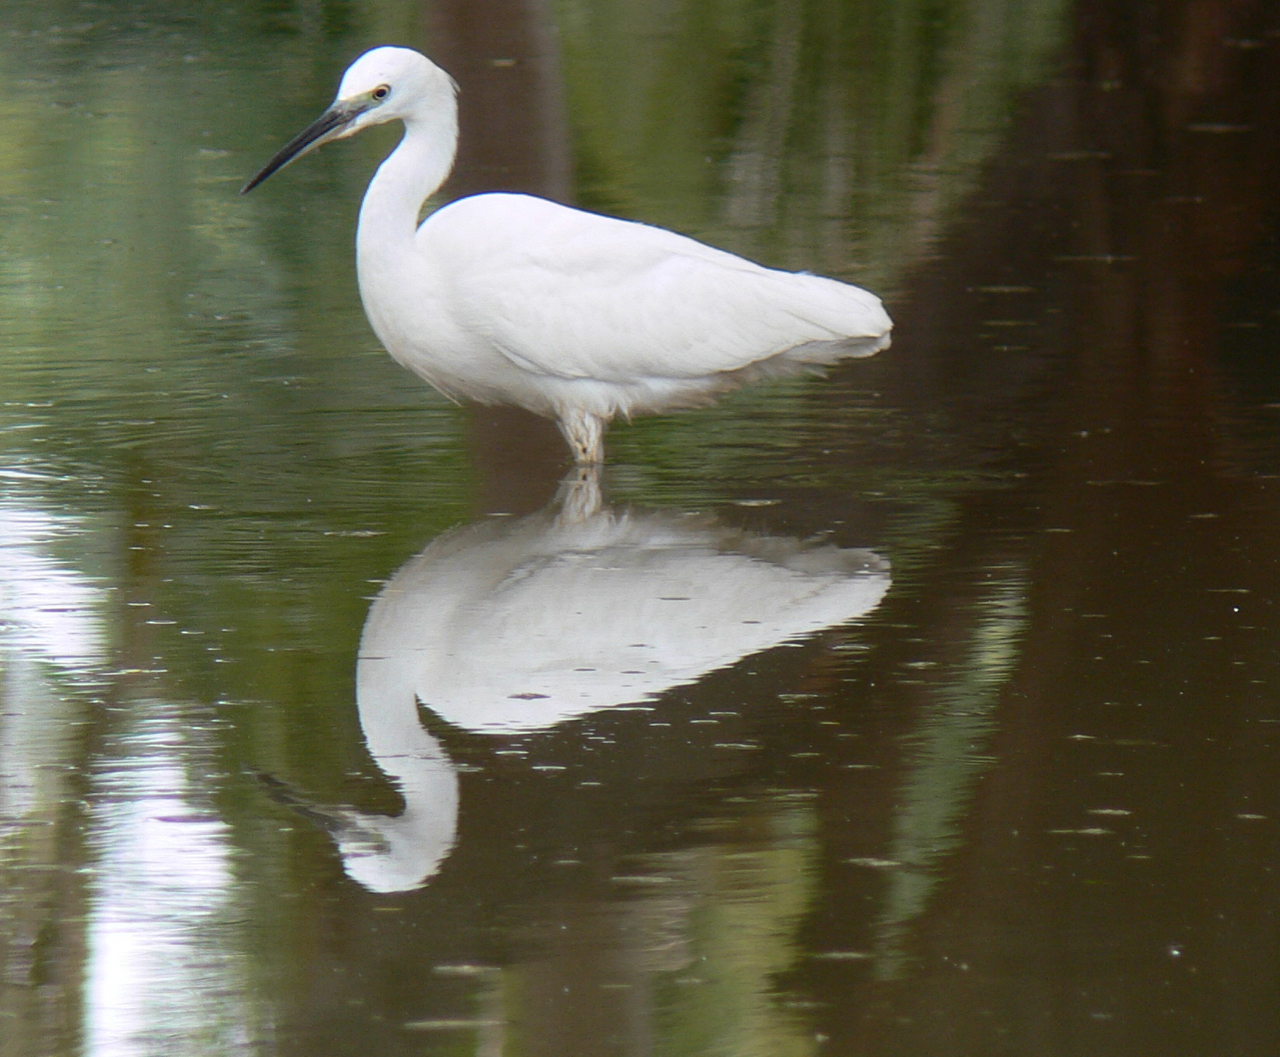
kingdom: Animalia
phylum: Chordata
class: Aves
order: Pelecaniformes
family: Ardeidae
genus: Egretta
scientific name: Egretta garzetta
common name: Little egret
